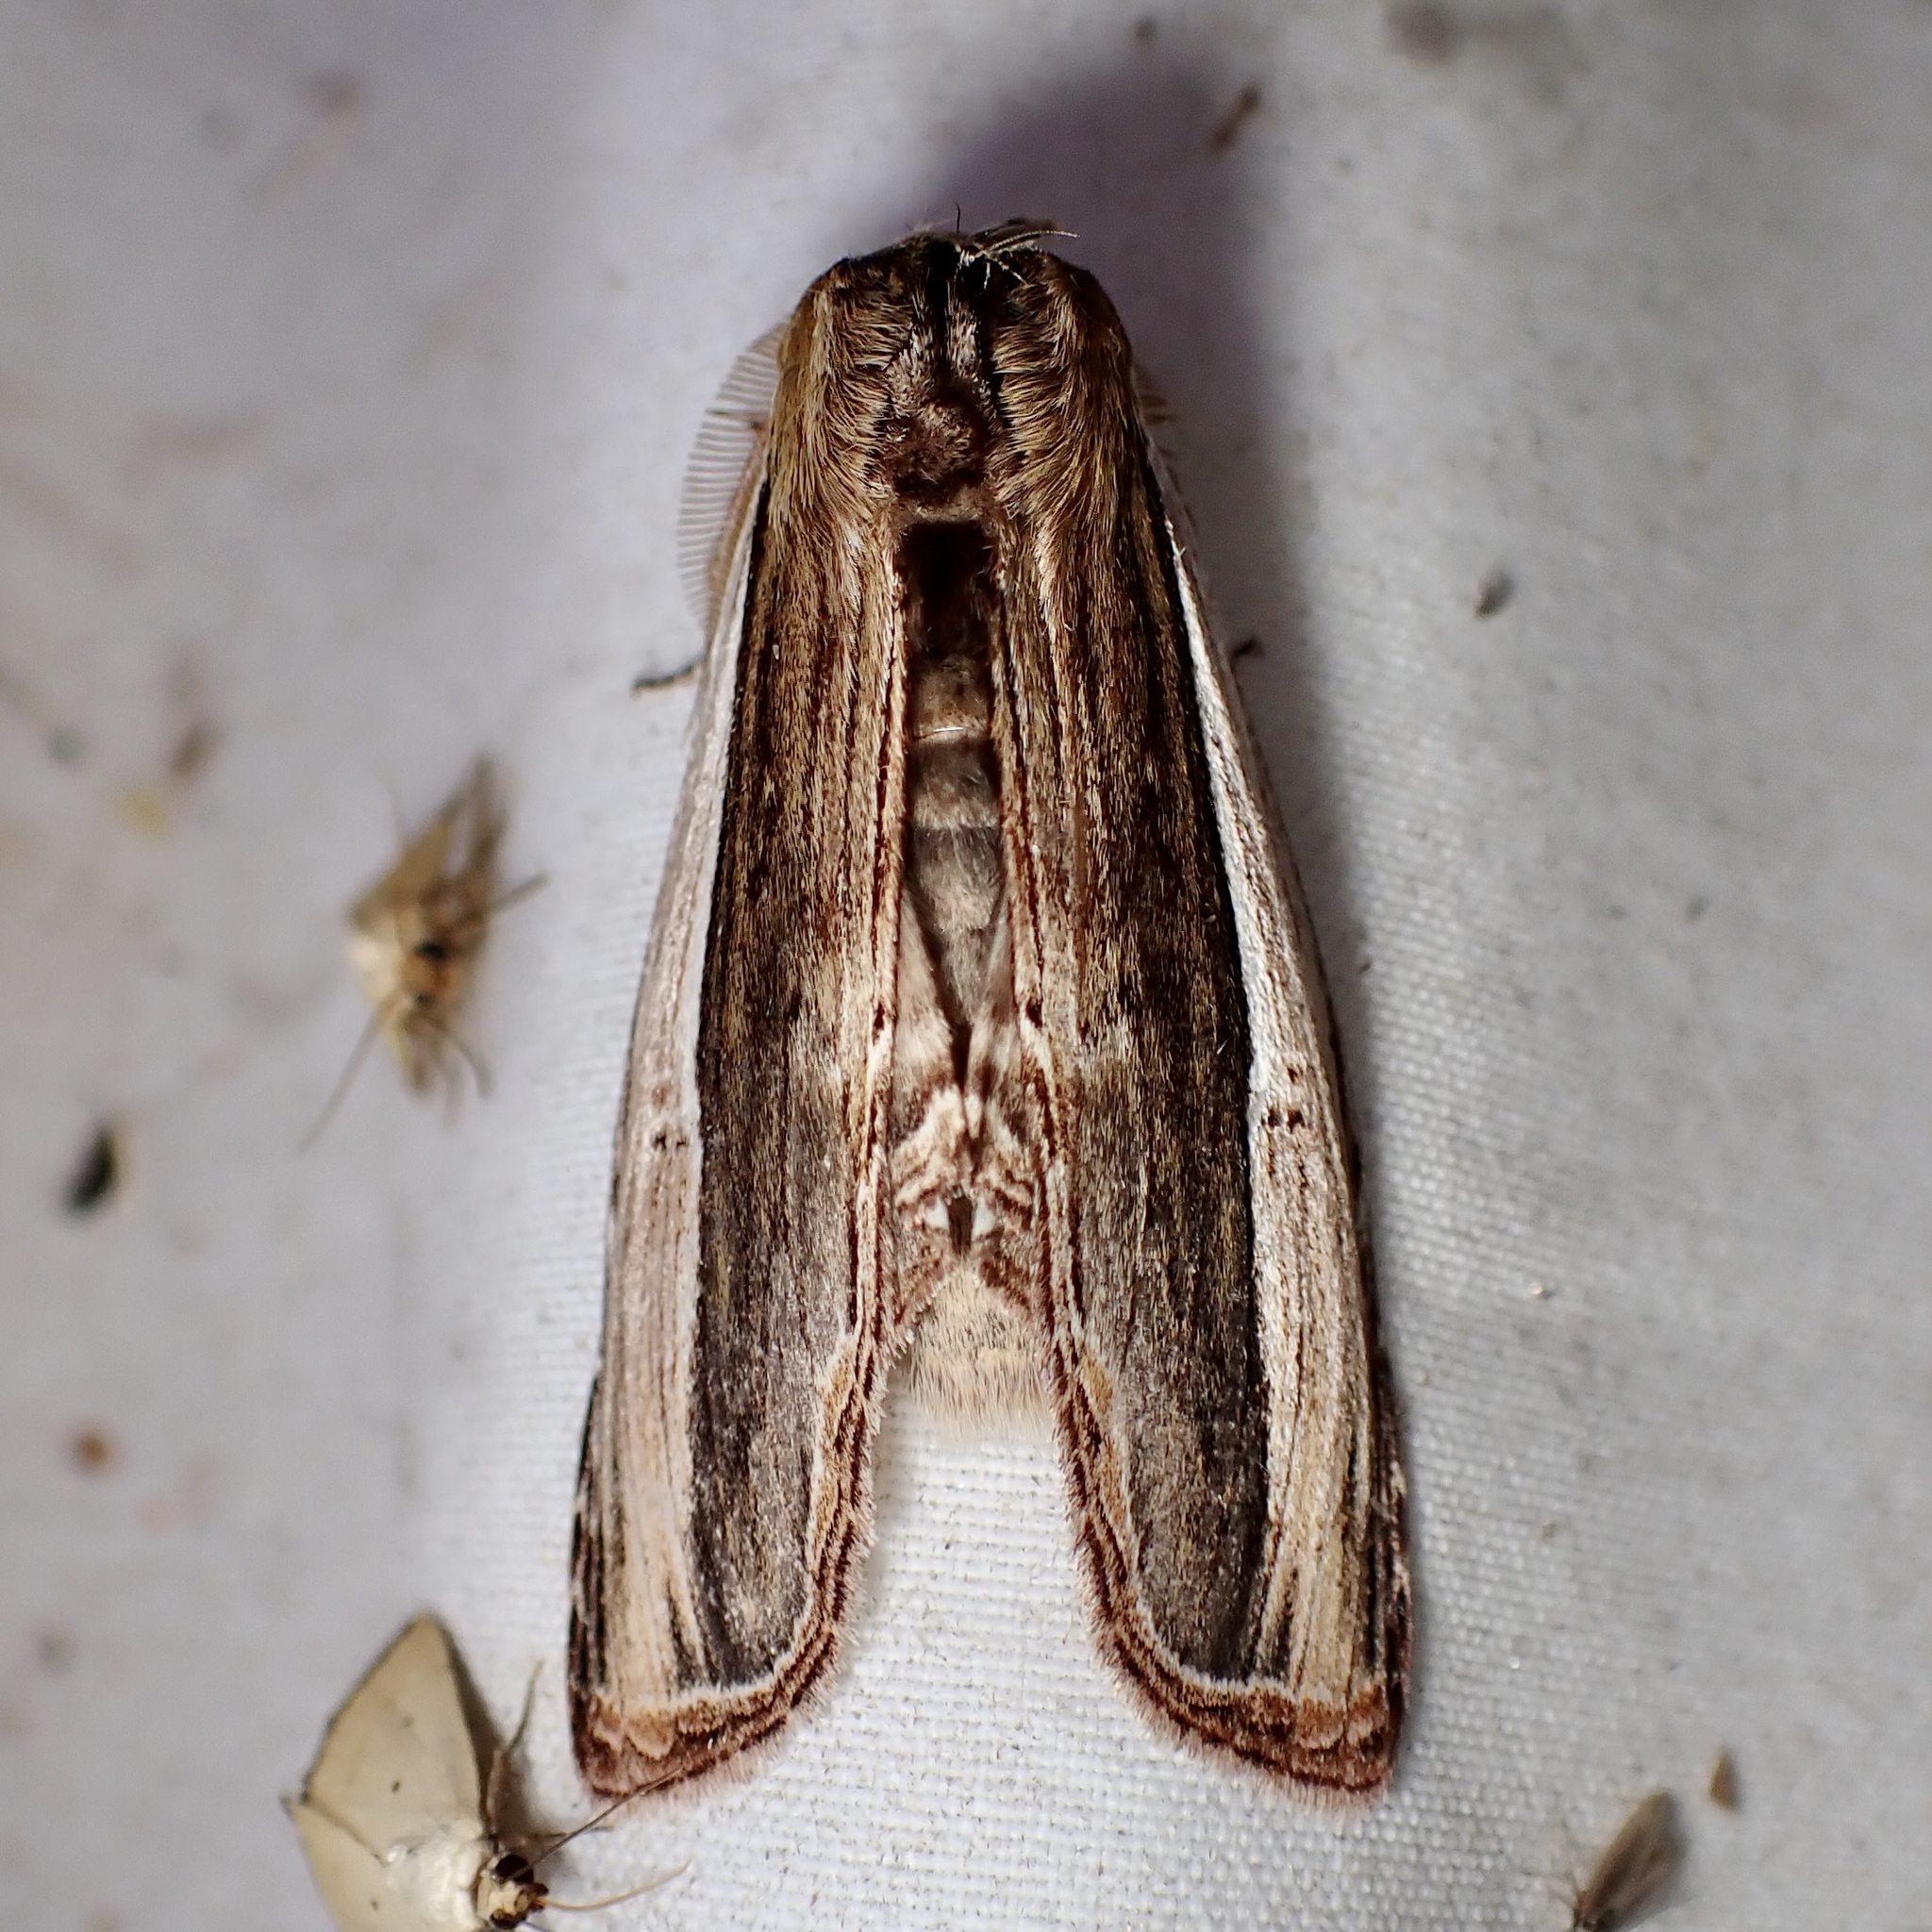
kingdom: Animalia
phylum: Arthropoda
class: Insecta
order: Lepidoptera
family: Notodontidae
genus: Truncaptera
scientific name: Truncaptera inopinata
